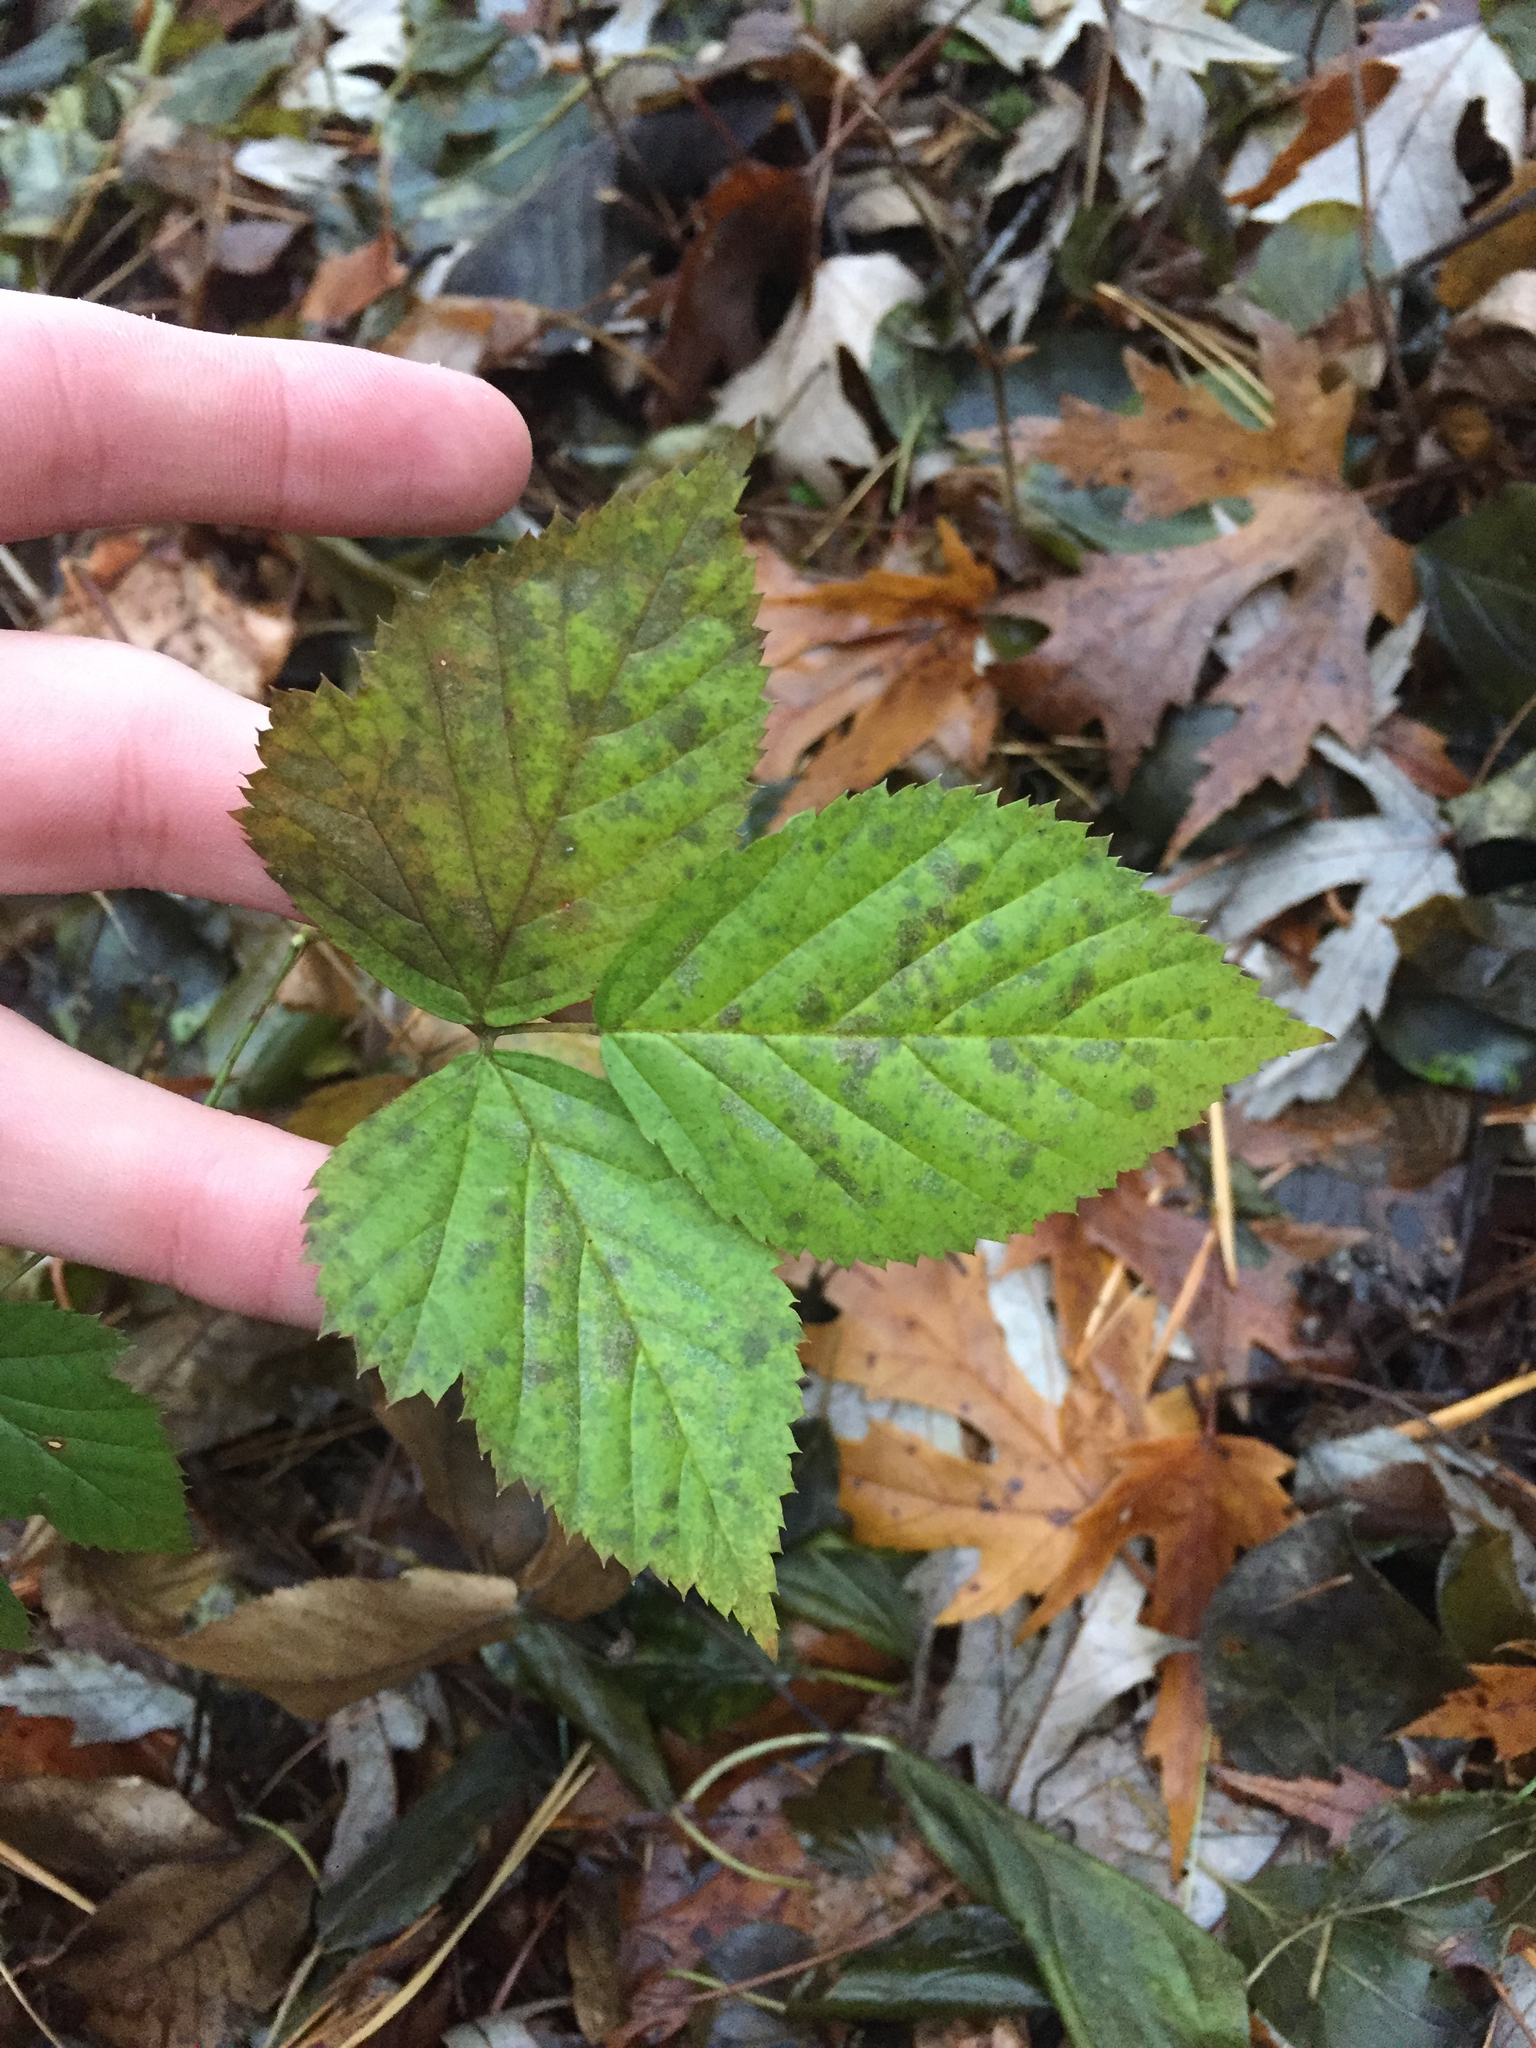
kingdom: Plantae
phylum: Tracheophyta
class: Magnoliopsida
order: Rosales
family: Rosaceae
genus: Rubus
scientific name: Rubus idaeus
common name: Raspberry
